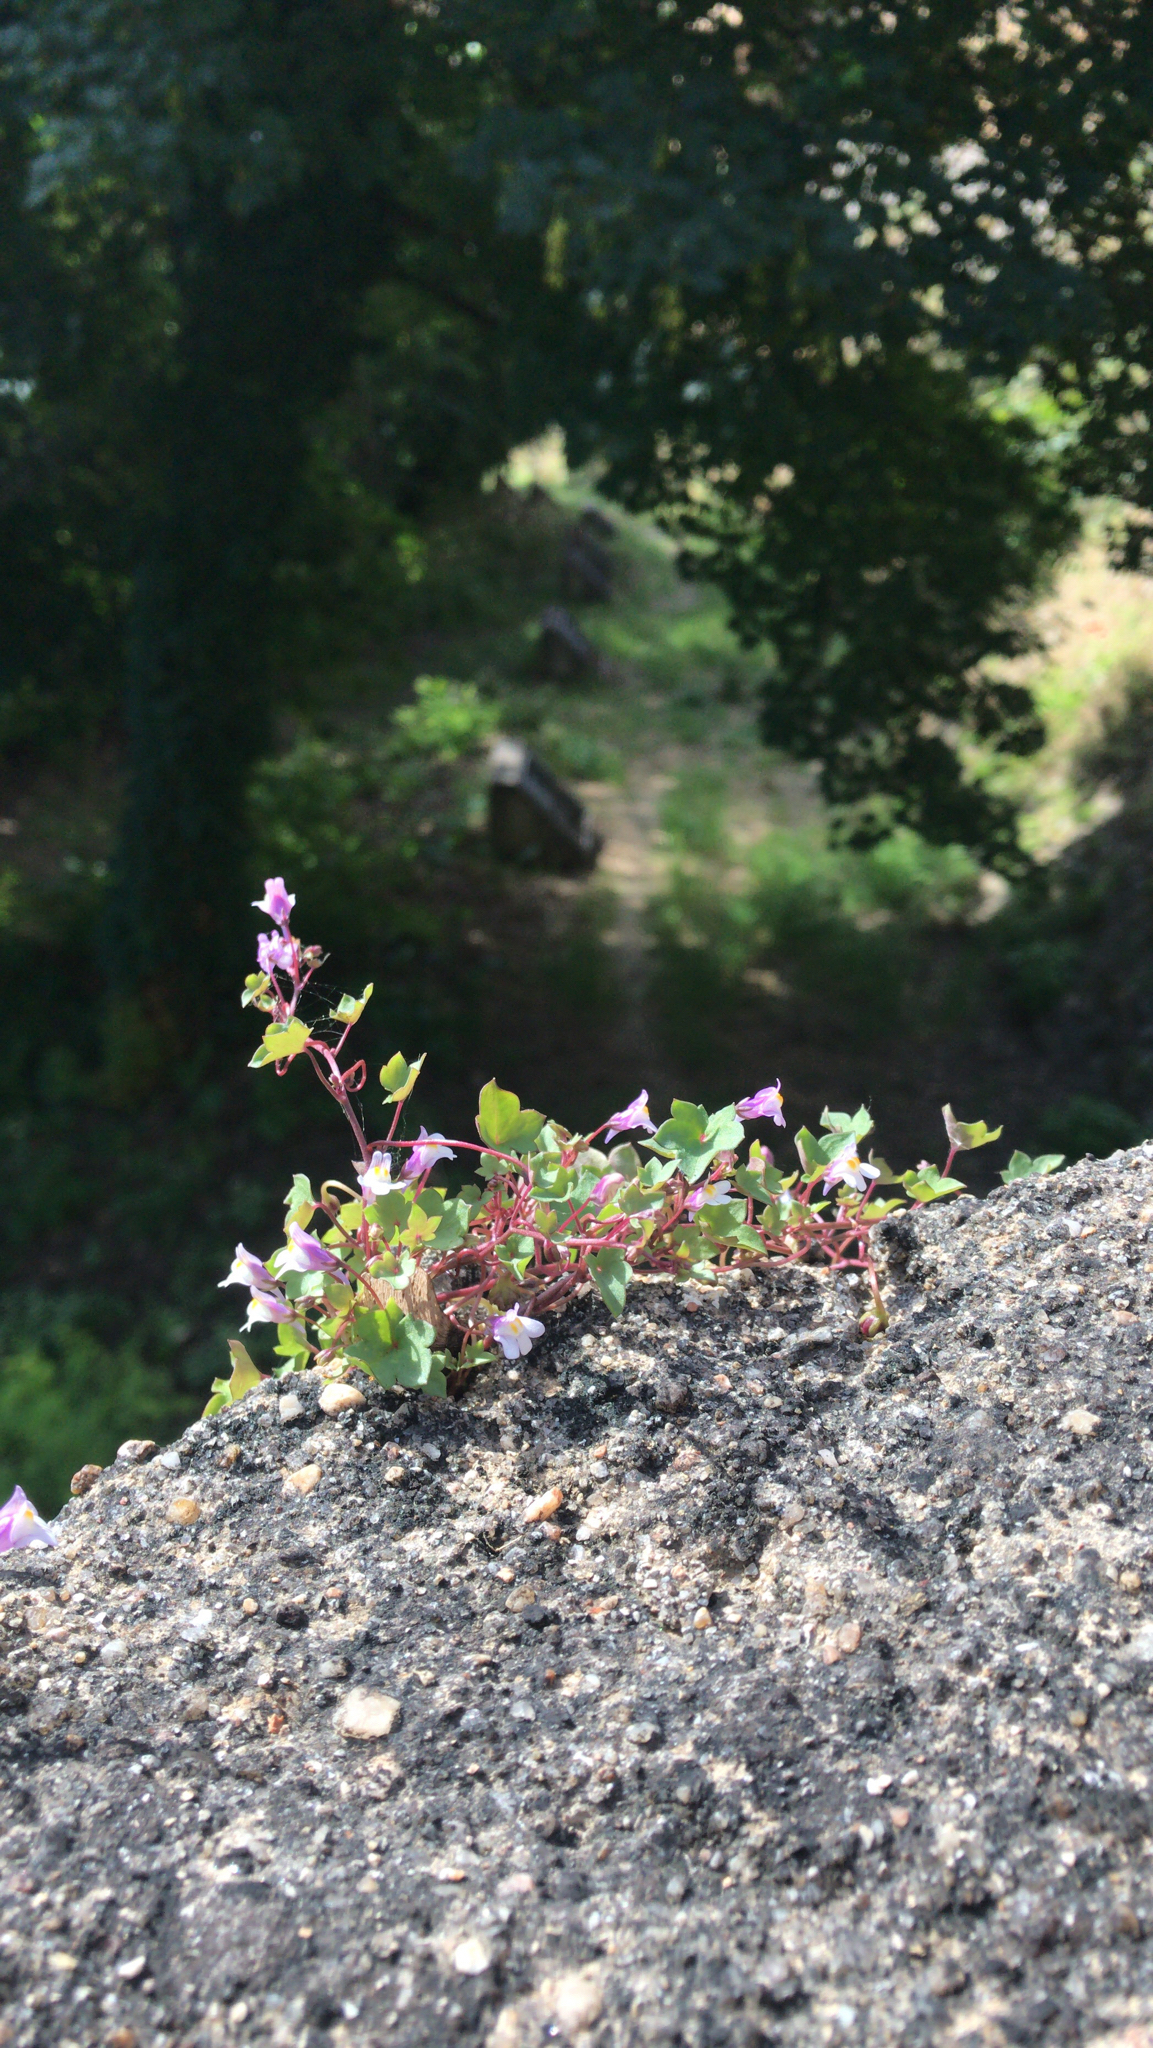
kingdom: Plantae
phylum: Tracheophyta
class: Magnoliopsida
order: Lamiales
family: Plantaginaceae
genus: Cymbalaria
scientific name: Cymbalaria muralis
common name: Ivy-leaved toadflax
